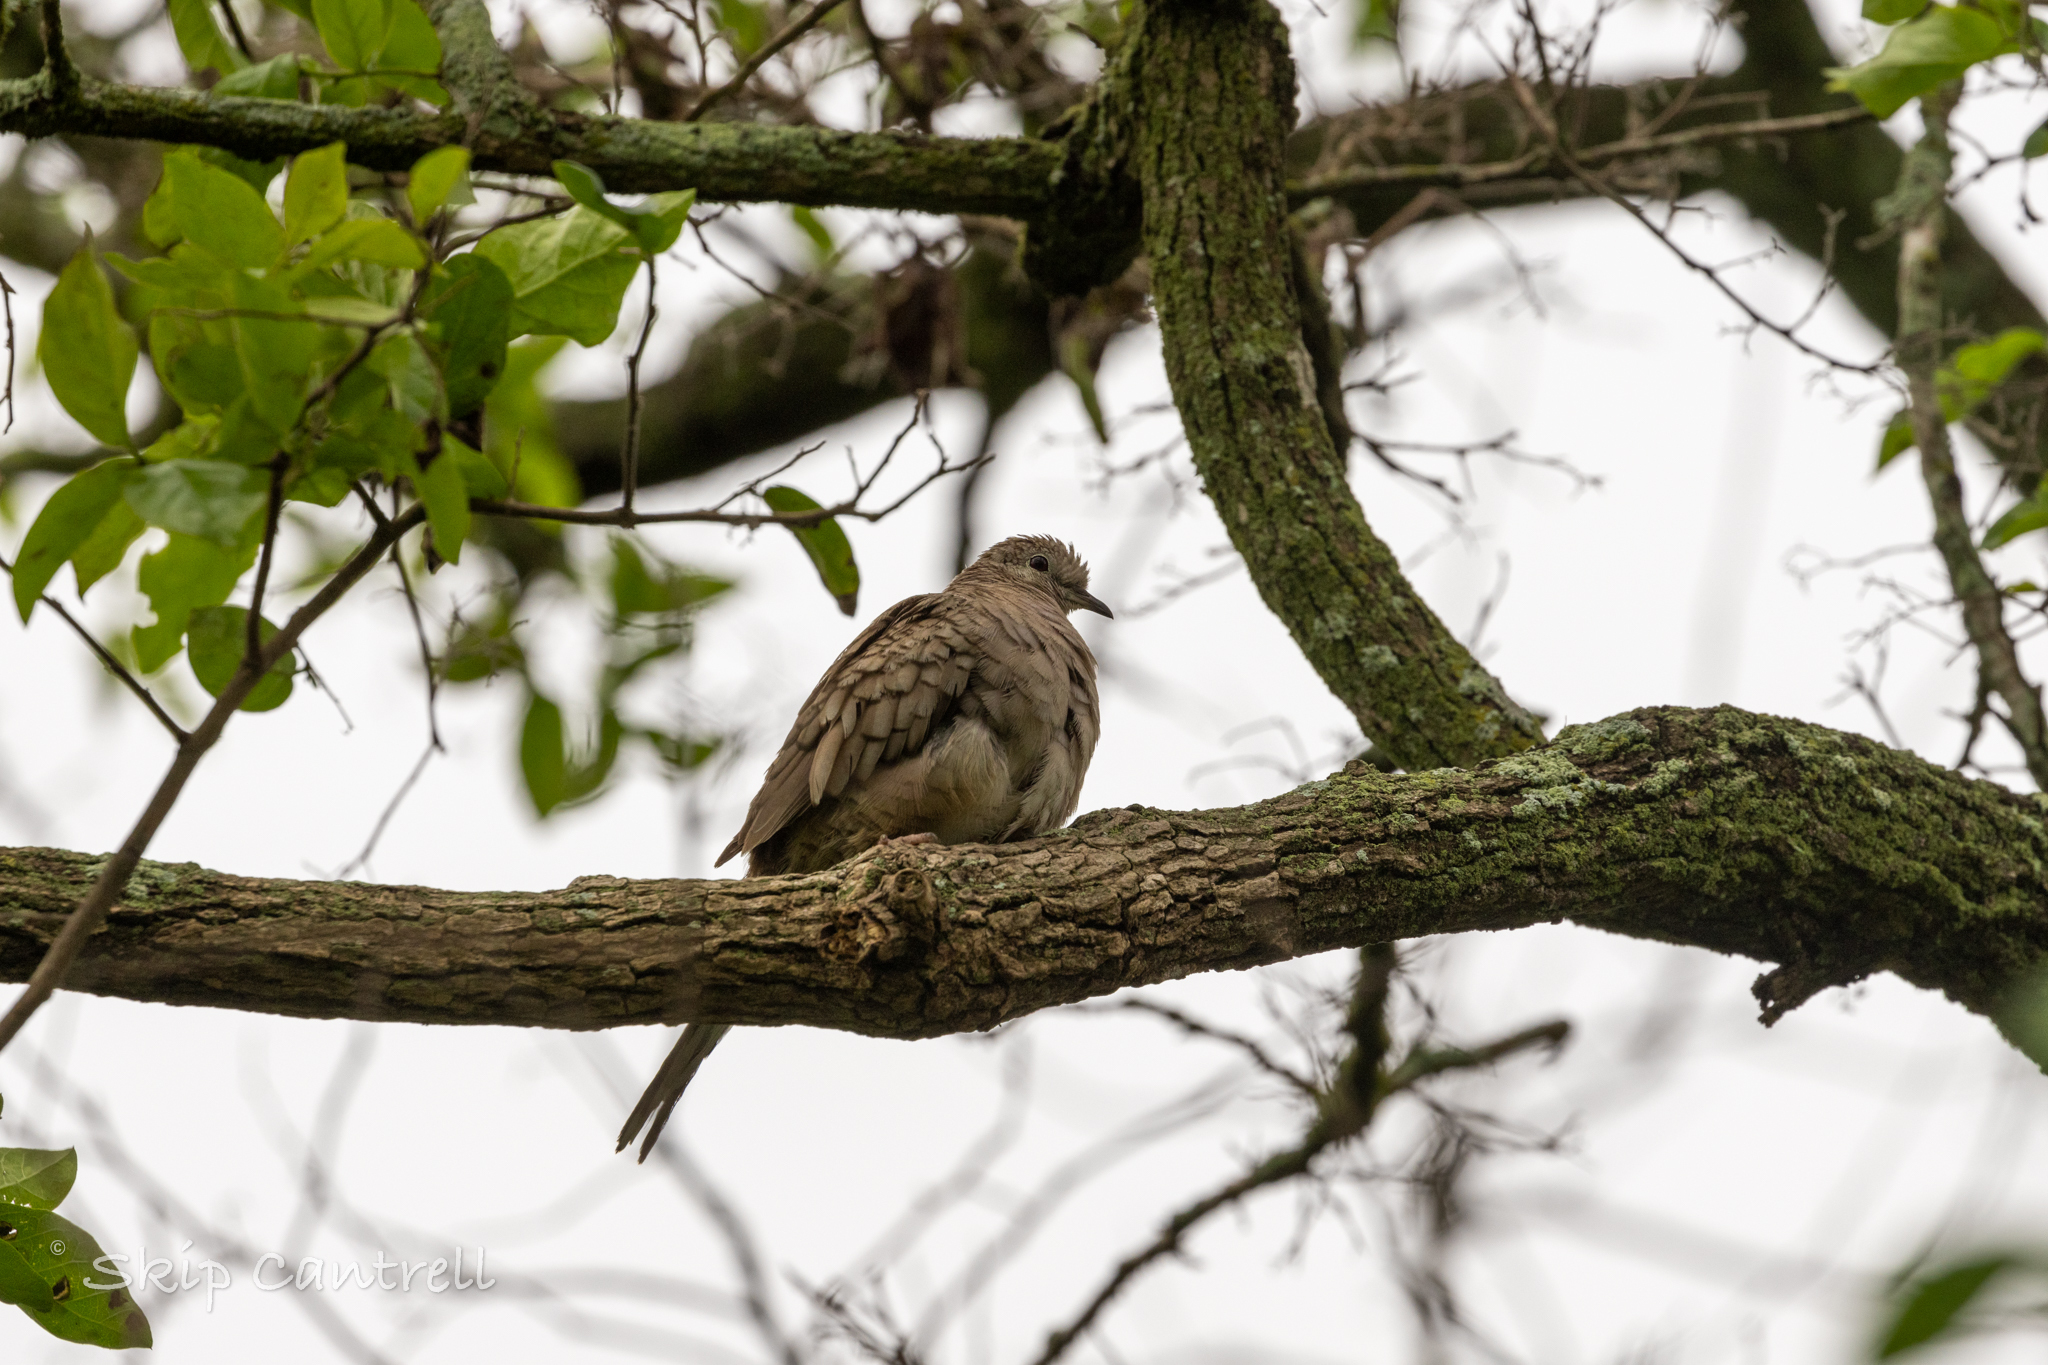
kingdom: Animalia
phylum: Chordata
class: Aves
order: Columbiformes
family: Columbidae
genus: Columbina
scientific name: Columbina inca
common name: Inca dove
